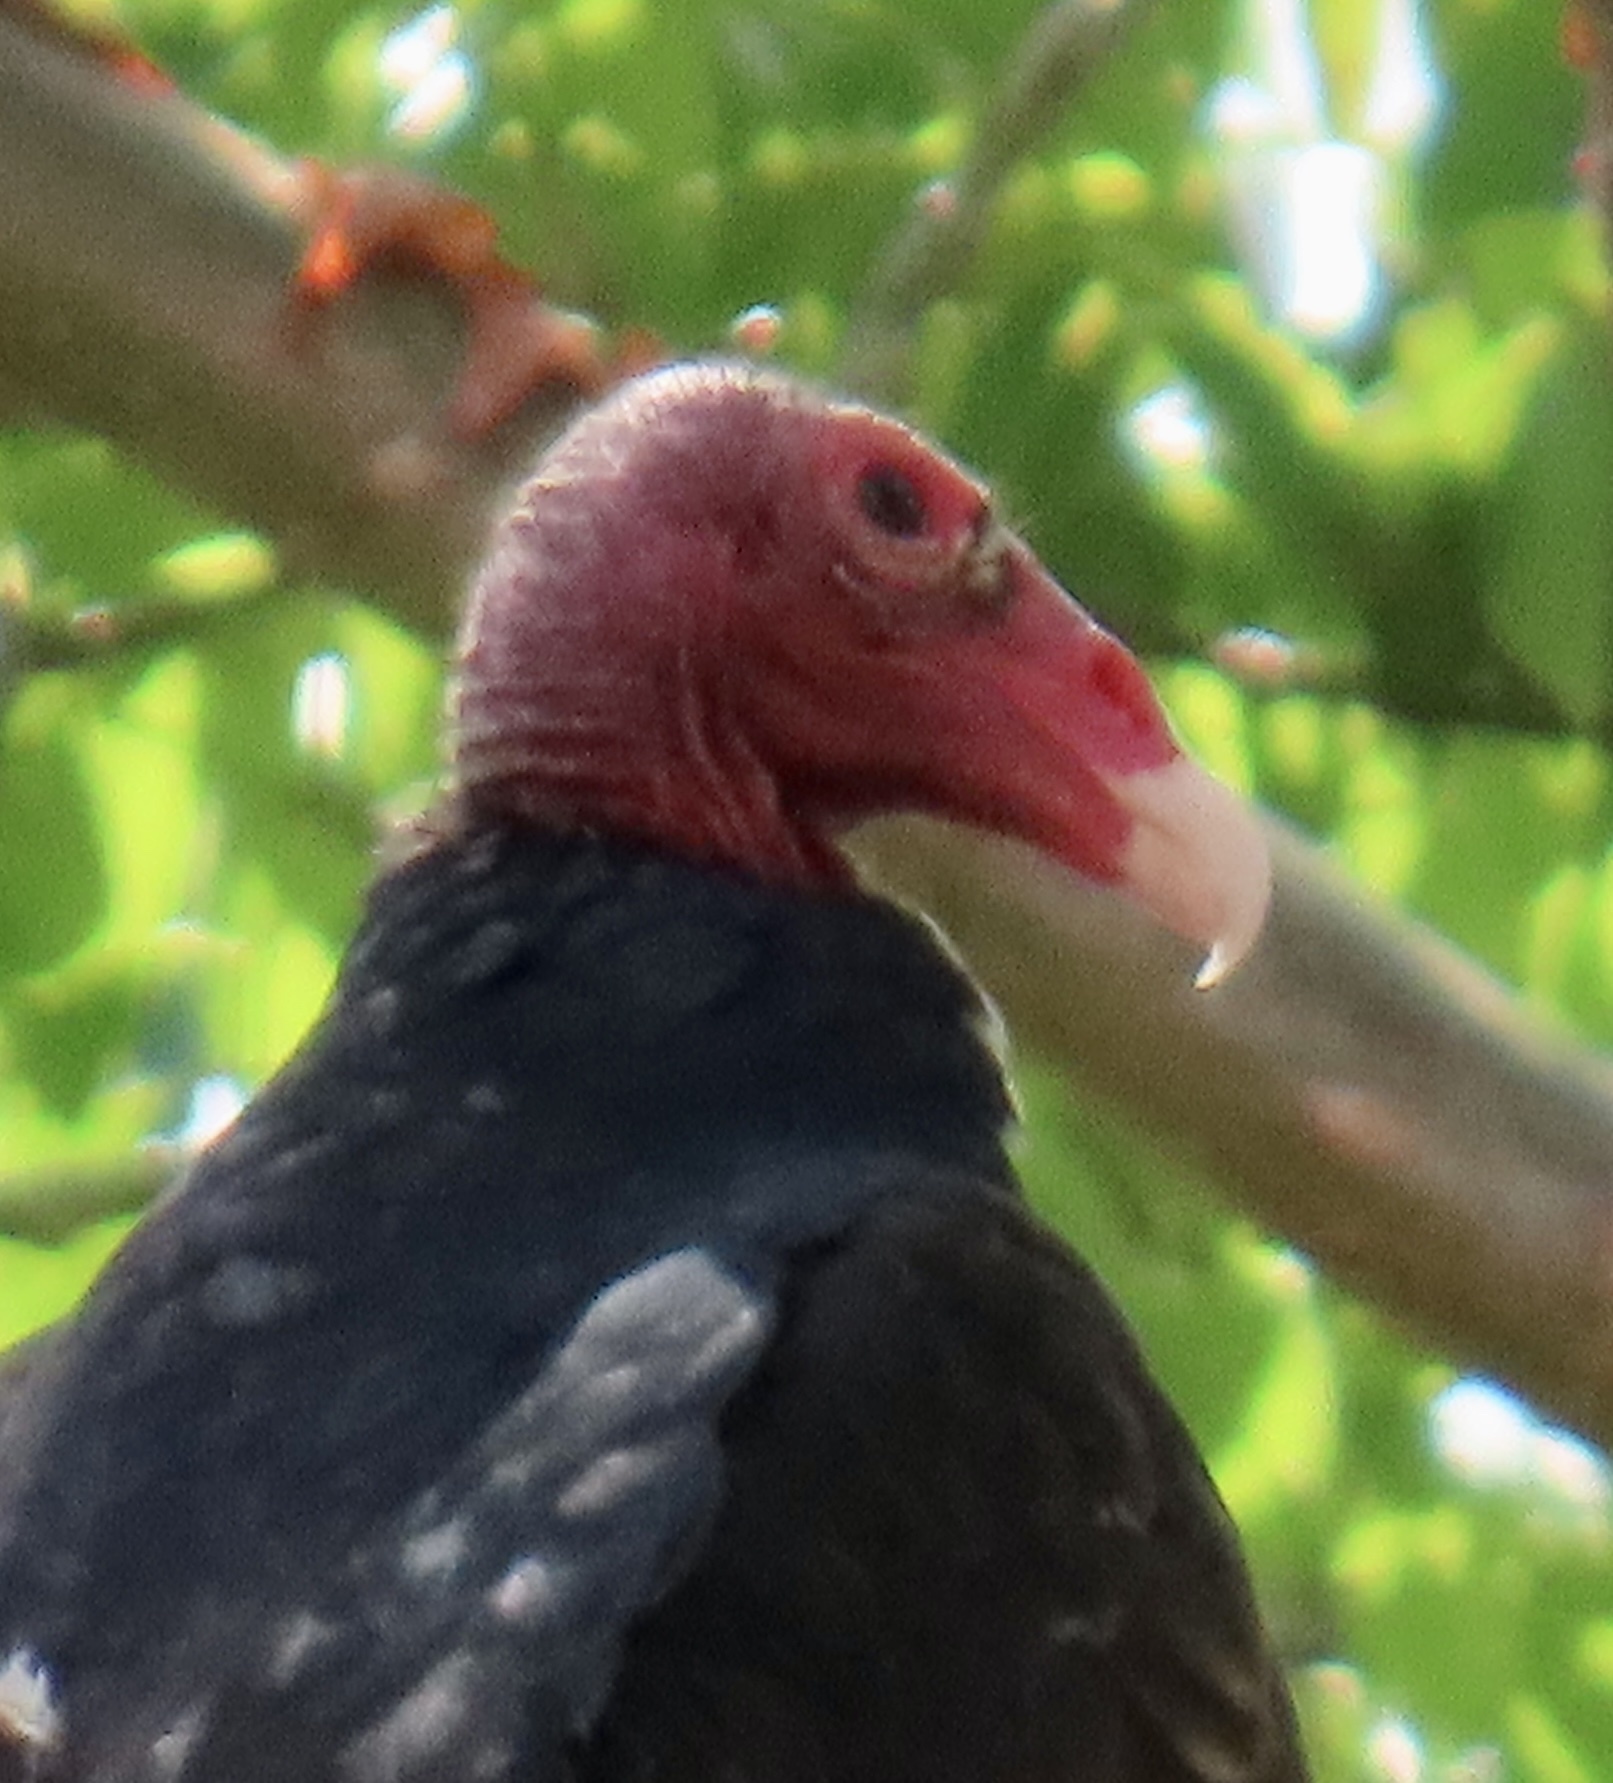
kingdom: Animalia
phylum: Chordata
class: Aves
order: Accipitriformes
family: Cathartidae
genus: Cathartes
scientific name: Cathartes aura
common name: Turkey vulture
